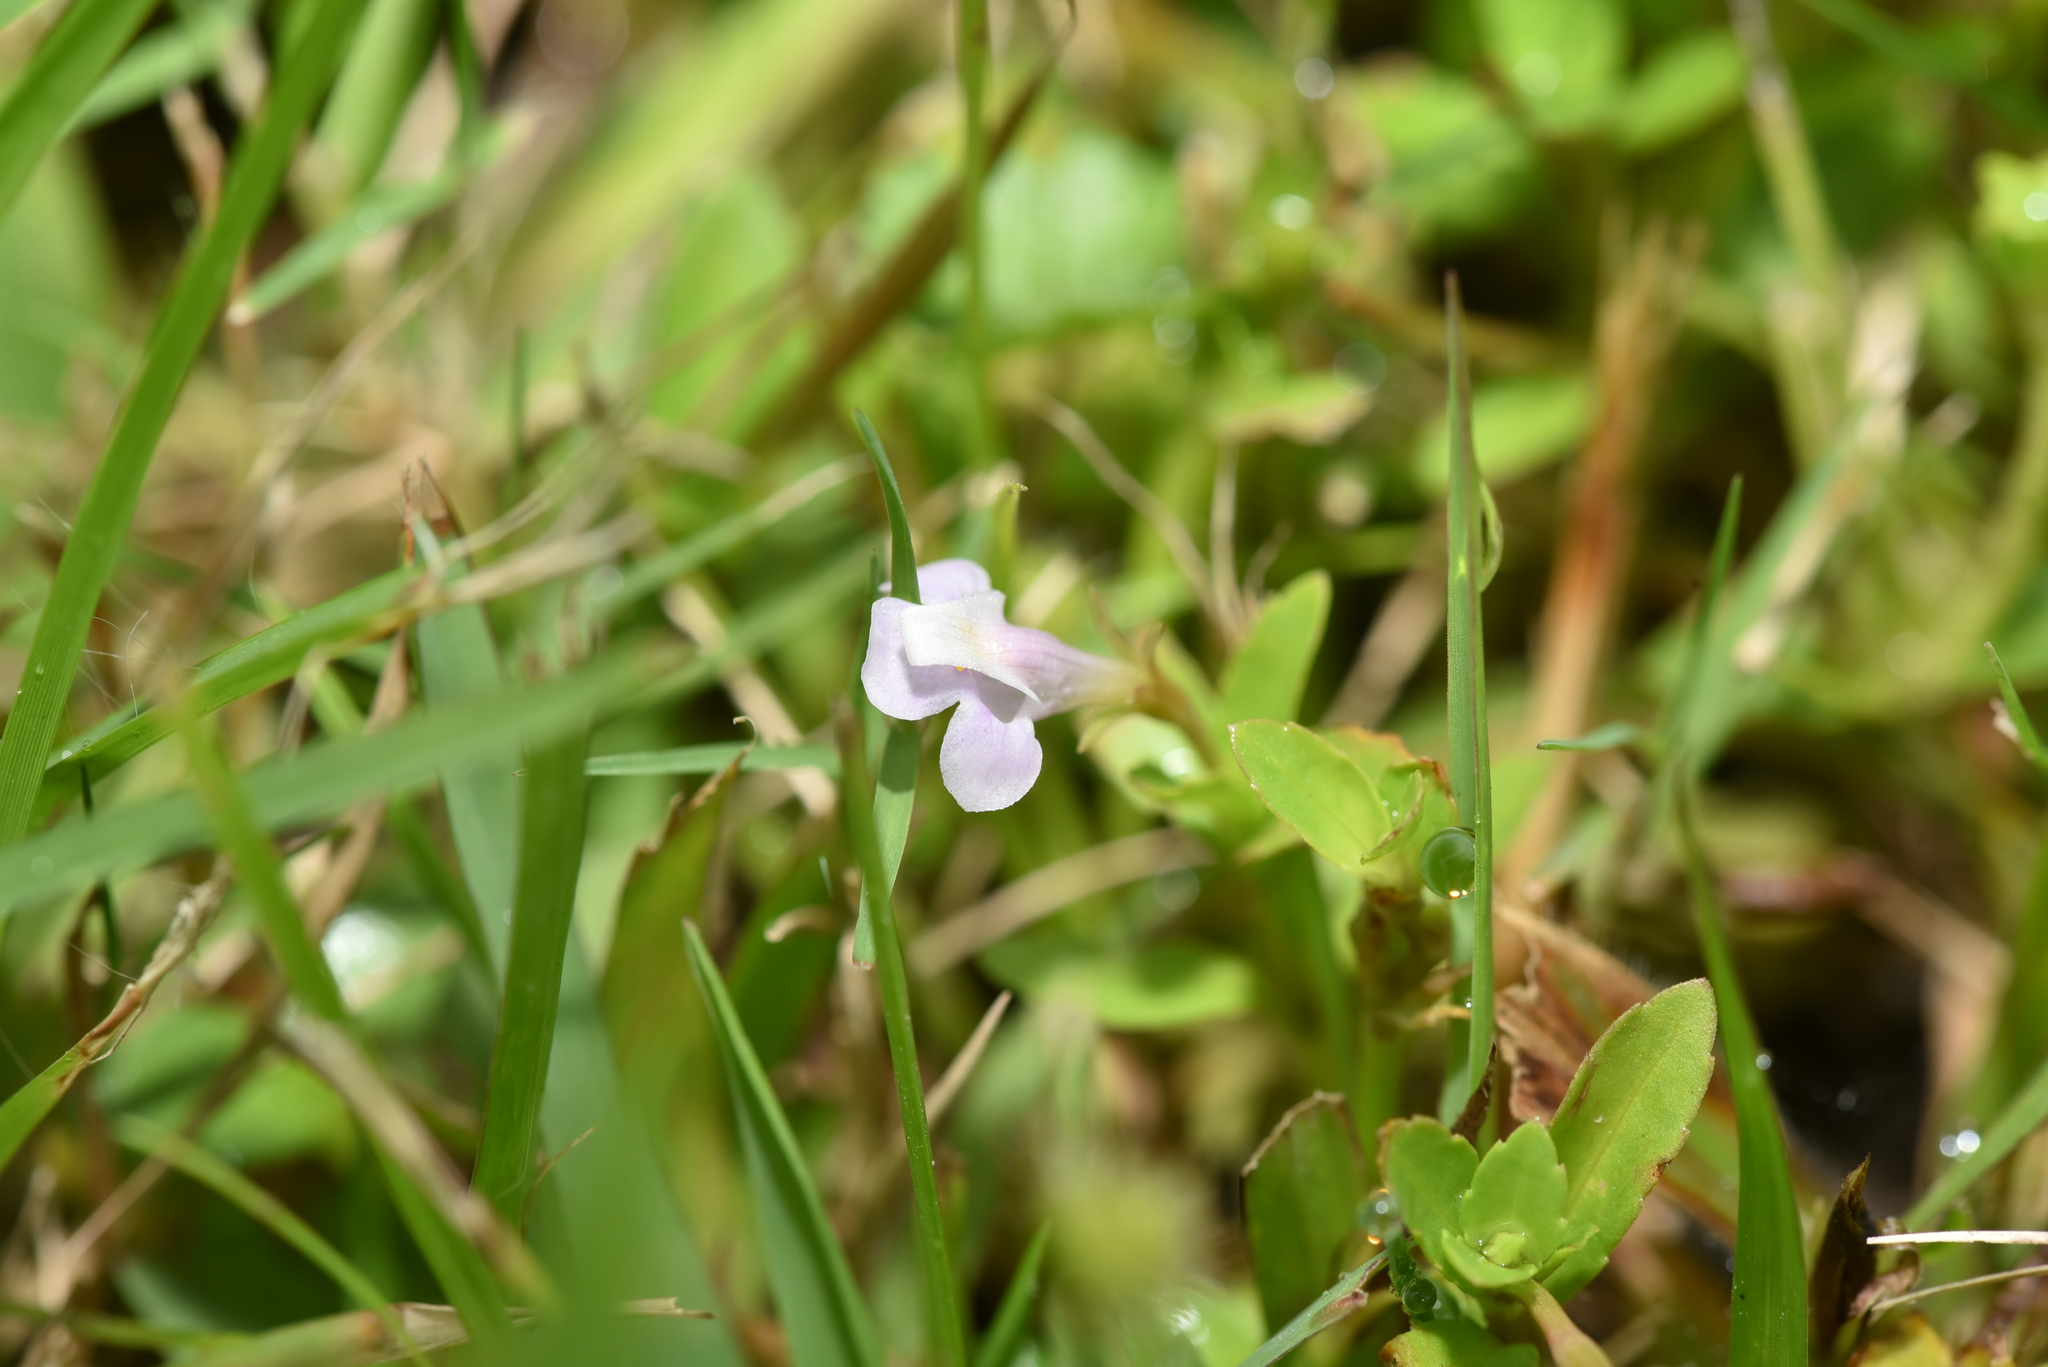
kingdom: Plantae
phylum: Tracheophyta
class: Magnoliopsida
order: Lamiales
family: Linderniaceae
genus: Bonnaya
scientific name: Bonnaya antipoda
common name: Sparrow false pimpernel
